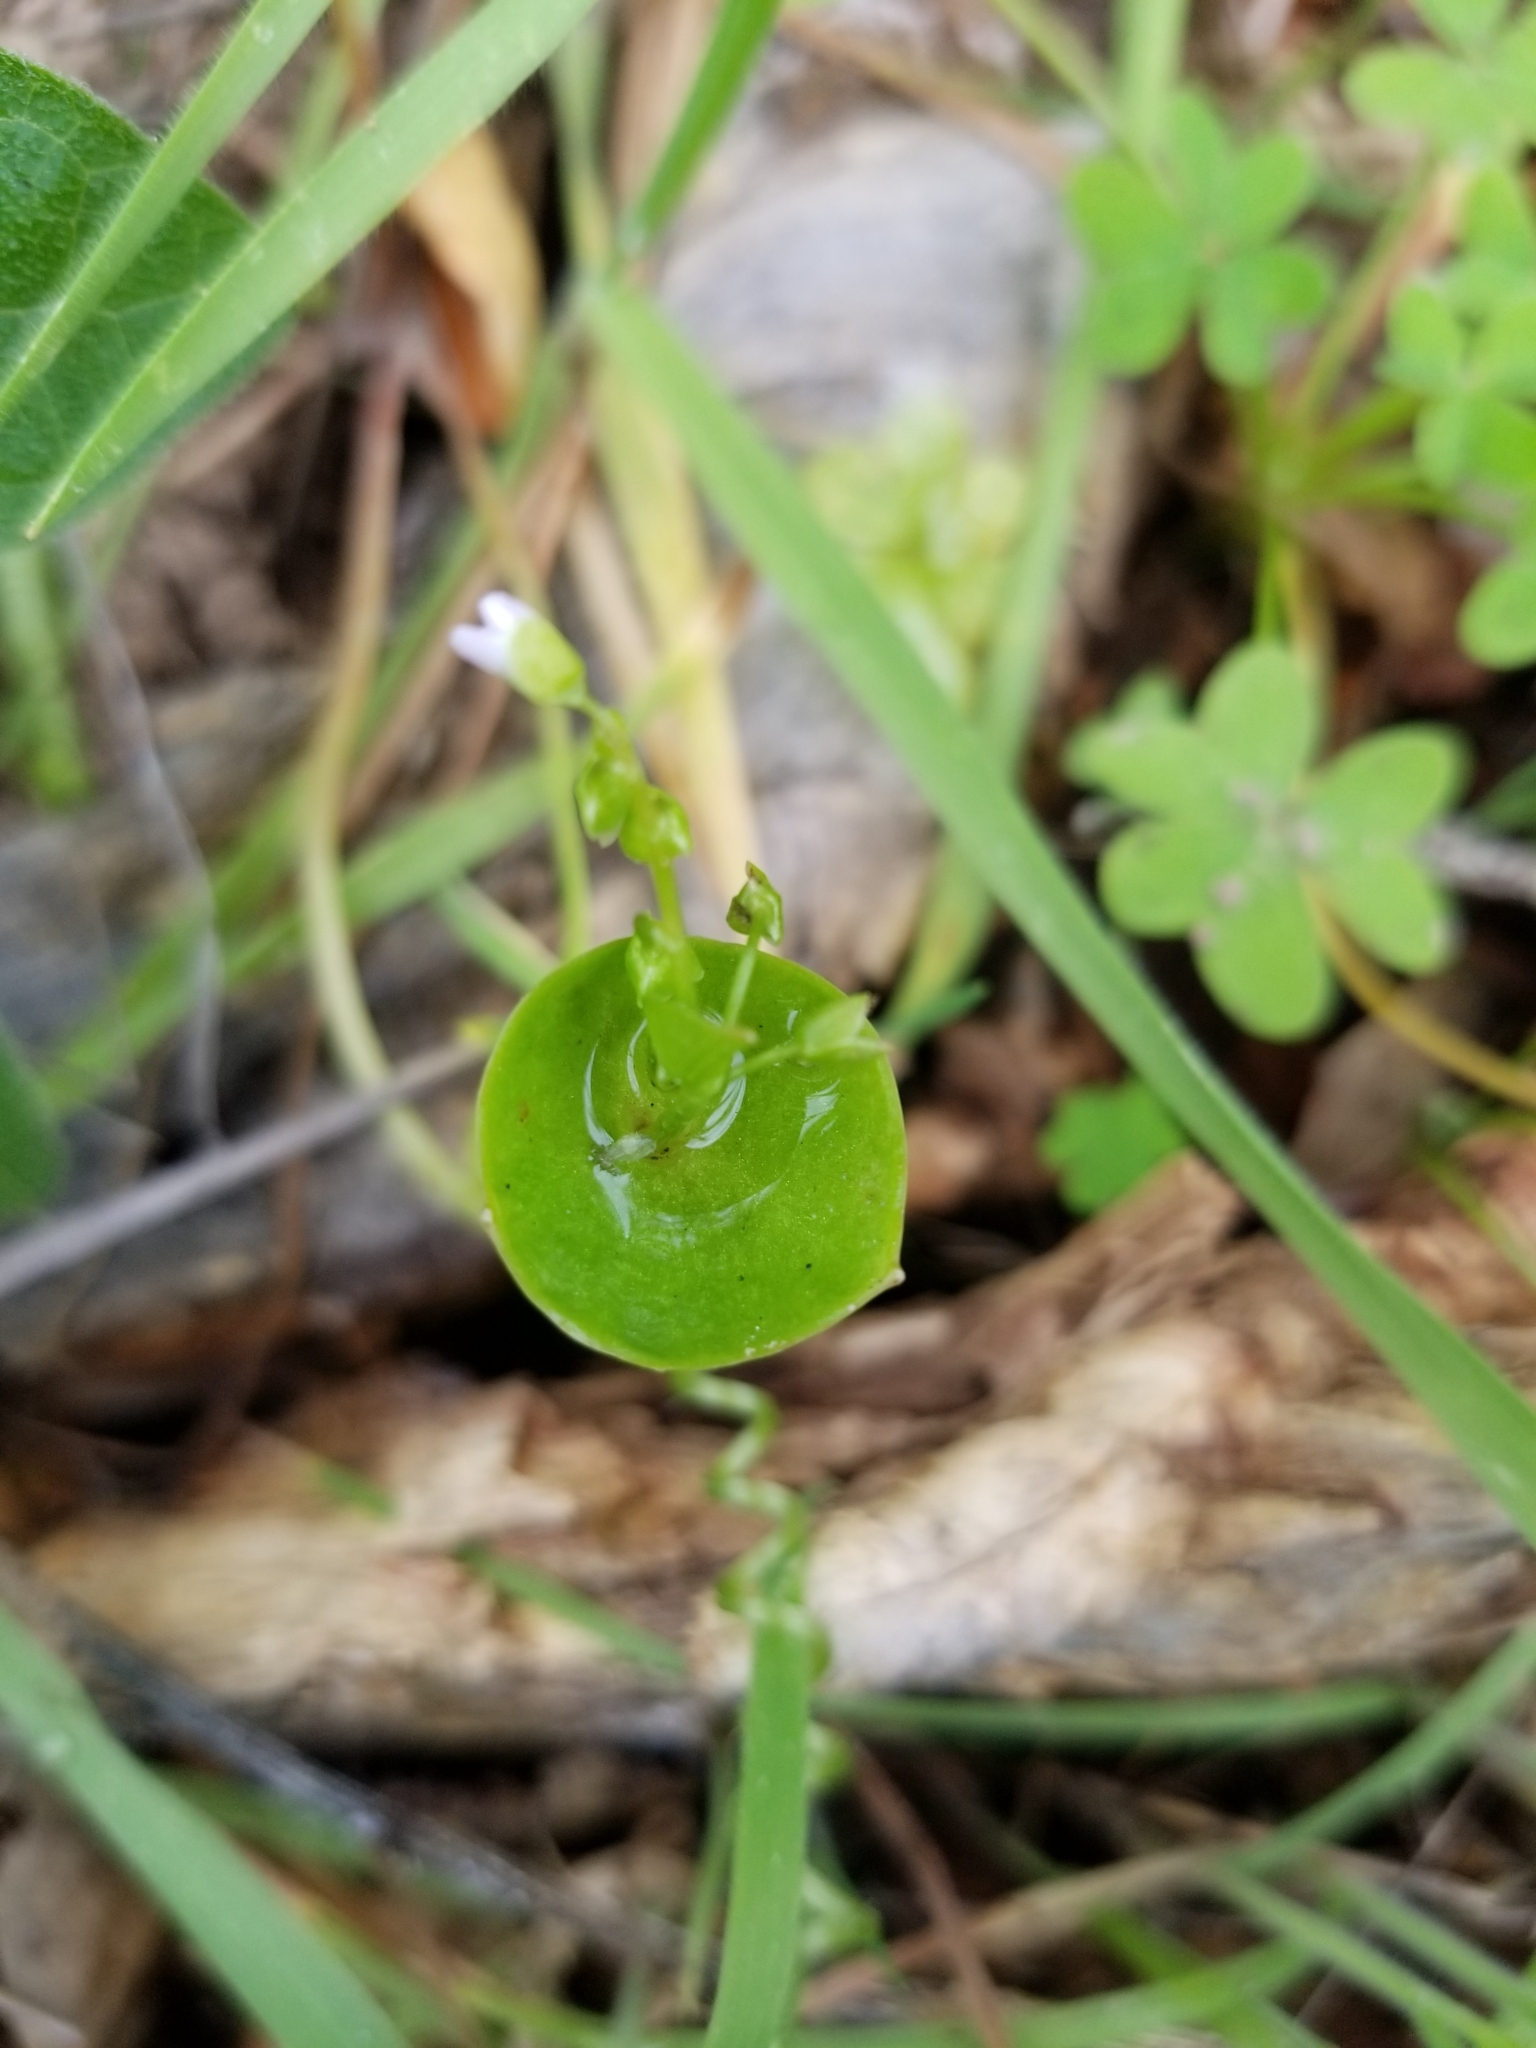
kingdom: Plantae
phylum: Tracheophyta
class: Magnoliopsida
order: Caryophyllales
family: Montiaceae
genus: Claytonia
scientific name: Claytonia perfoliata
